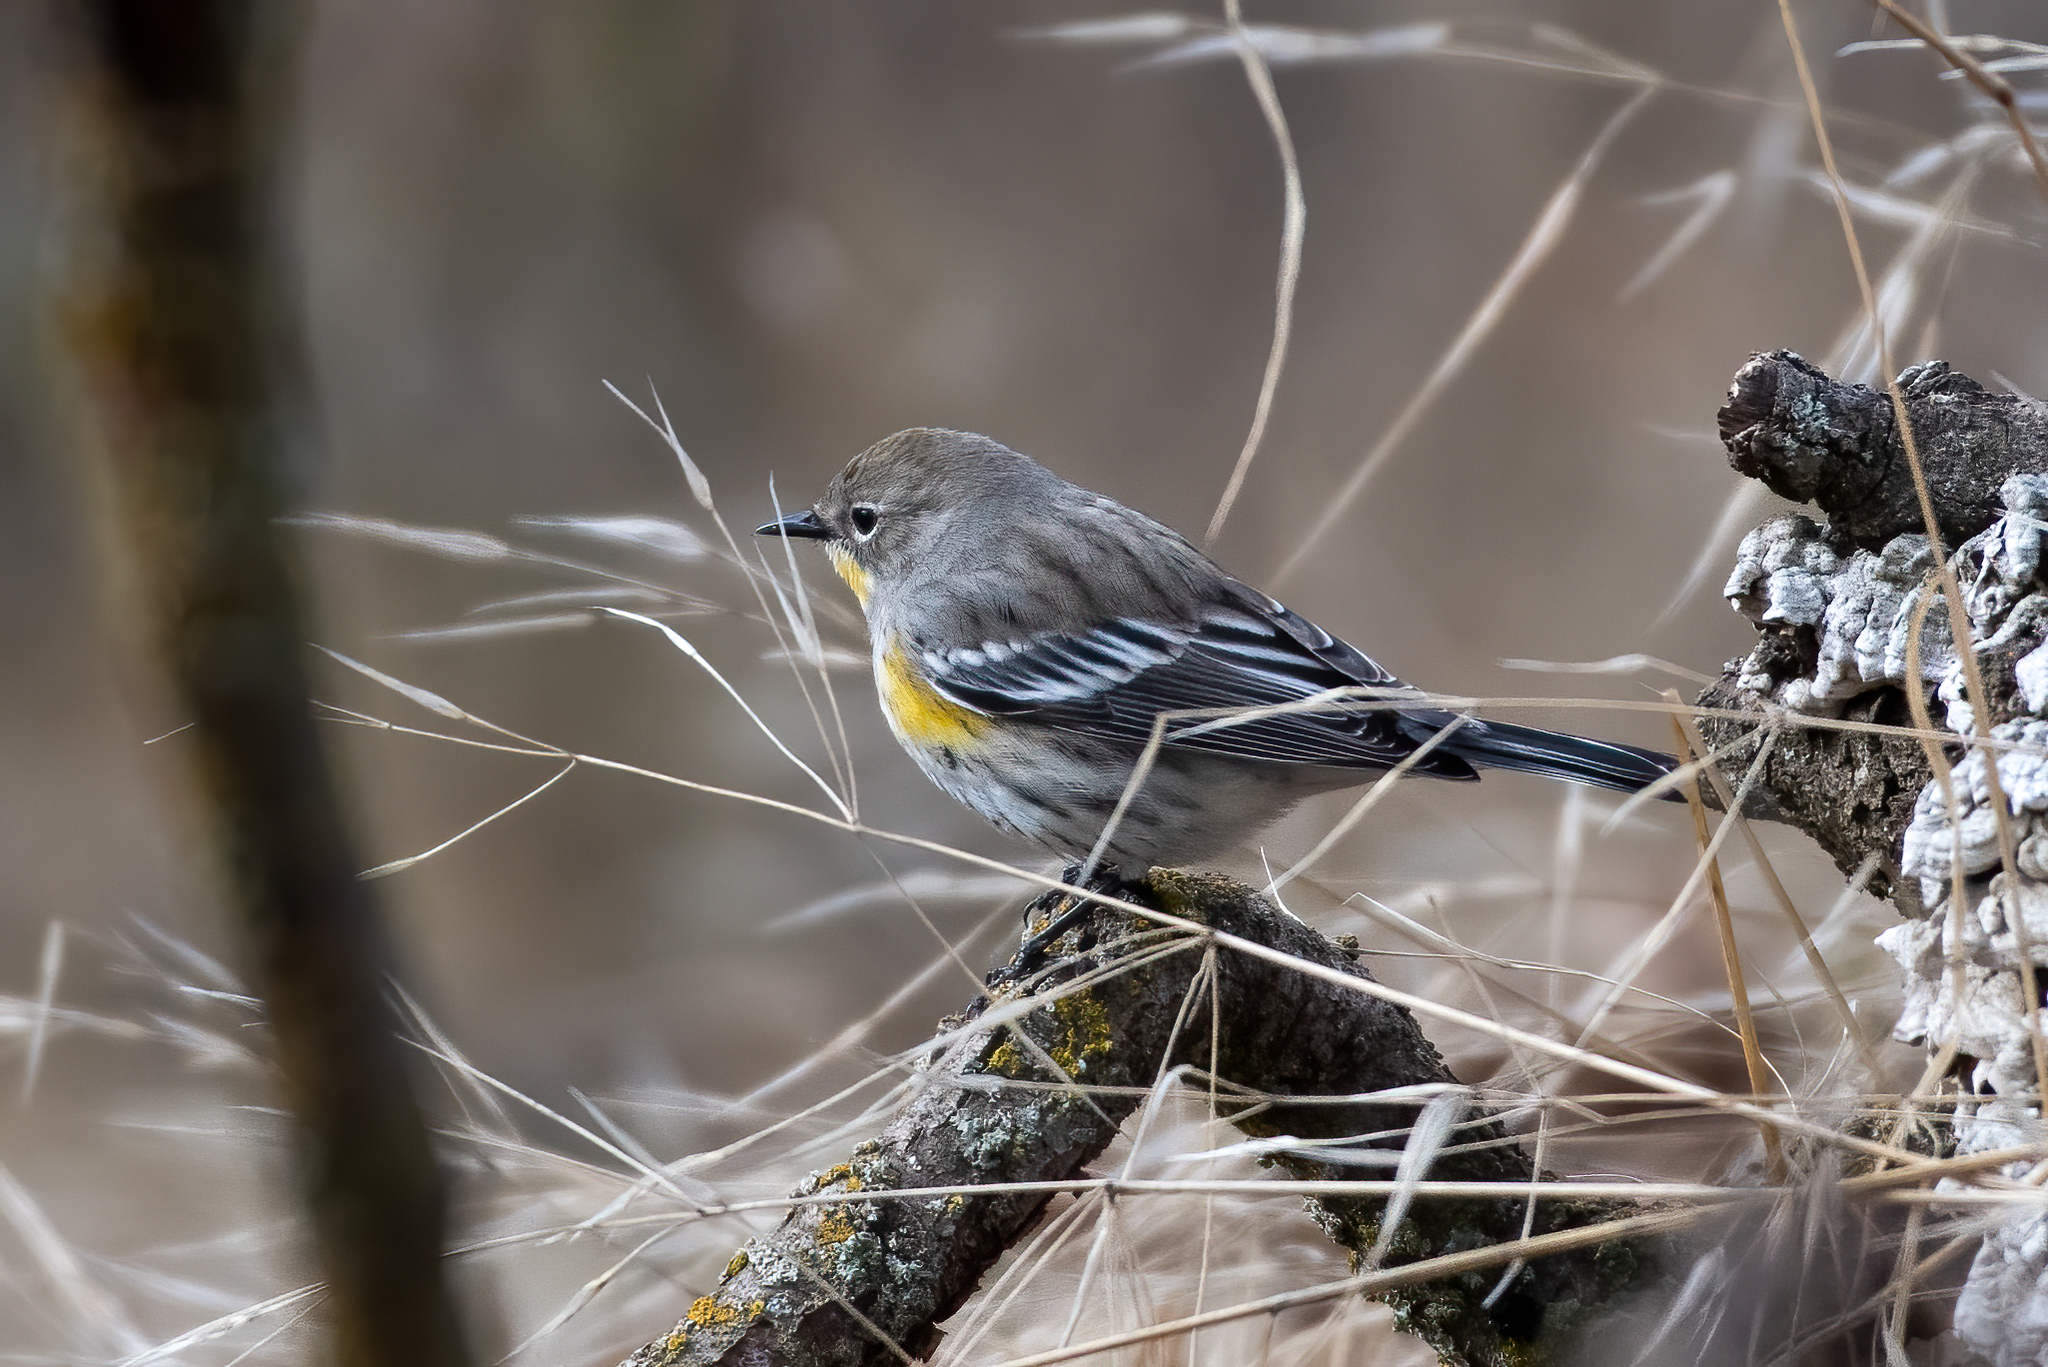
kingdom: Animalia
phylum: Chordata
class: Aves
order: Passeriformes
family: Parulidae
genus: Setophaga
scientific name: Setophaga coronata
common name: Myrtle warbler
